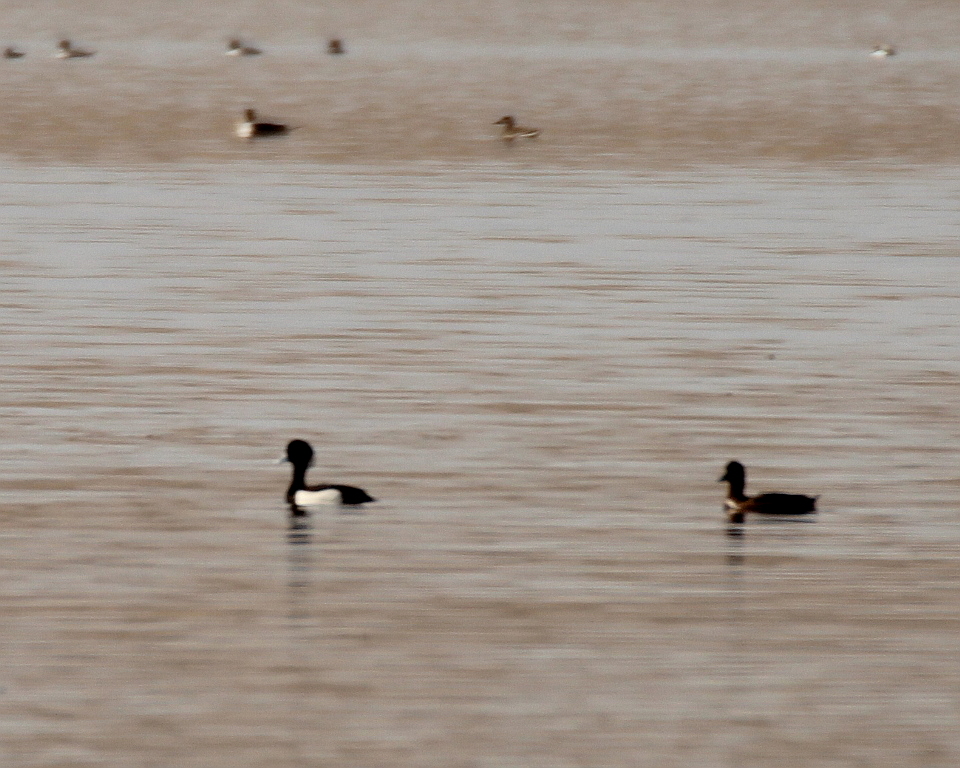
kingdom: Animalia
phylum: Chordata
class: Aves
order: Anseriformes
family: Anatidae
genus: Aythya
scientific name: Aythya fuligula
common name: Tufted duck
